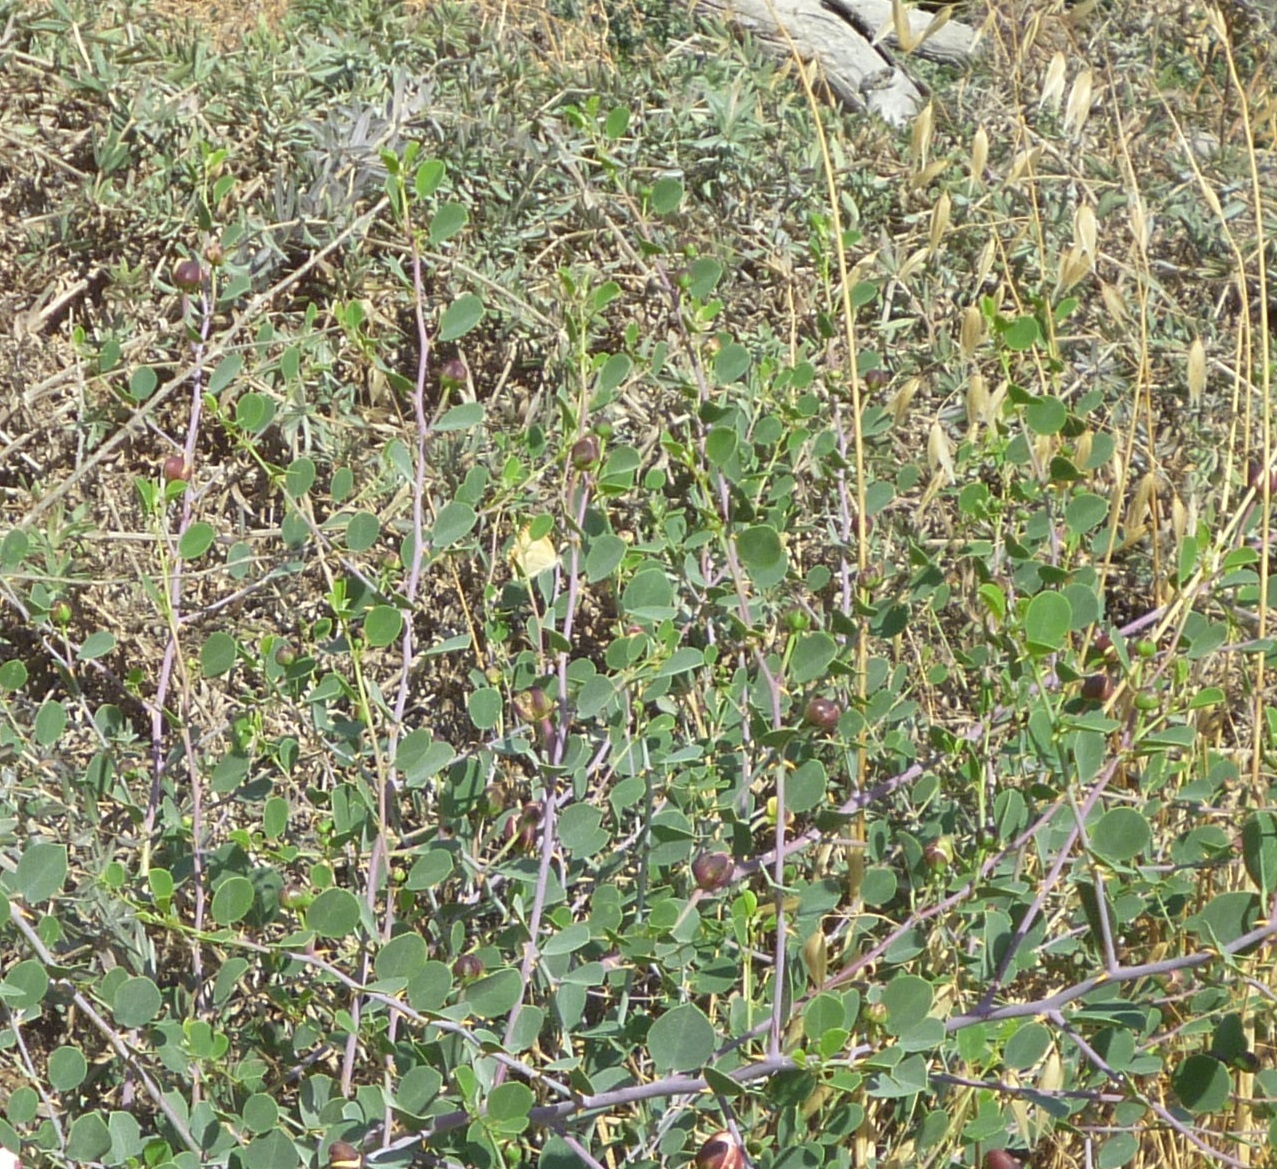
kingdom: Animalia
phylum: Arthropoda
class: Insecta
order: Lepidoptera
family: Pieridae
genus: Colotis
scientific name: Colotis fausta
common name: Large salmon arab
